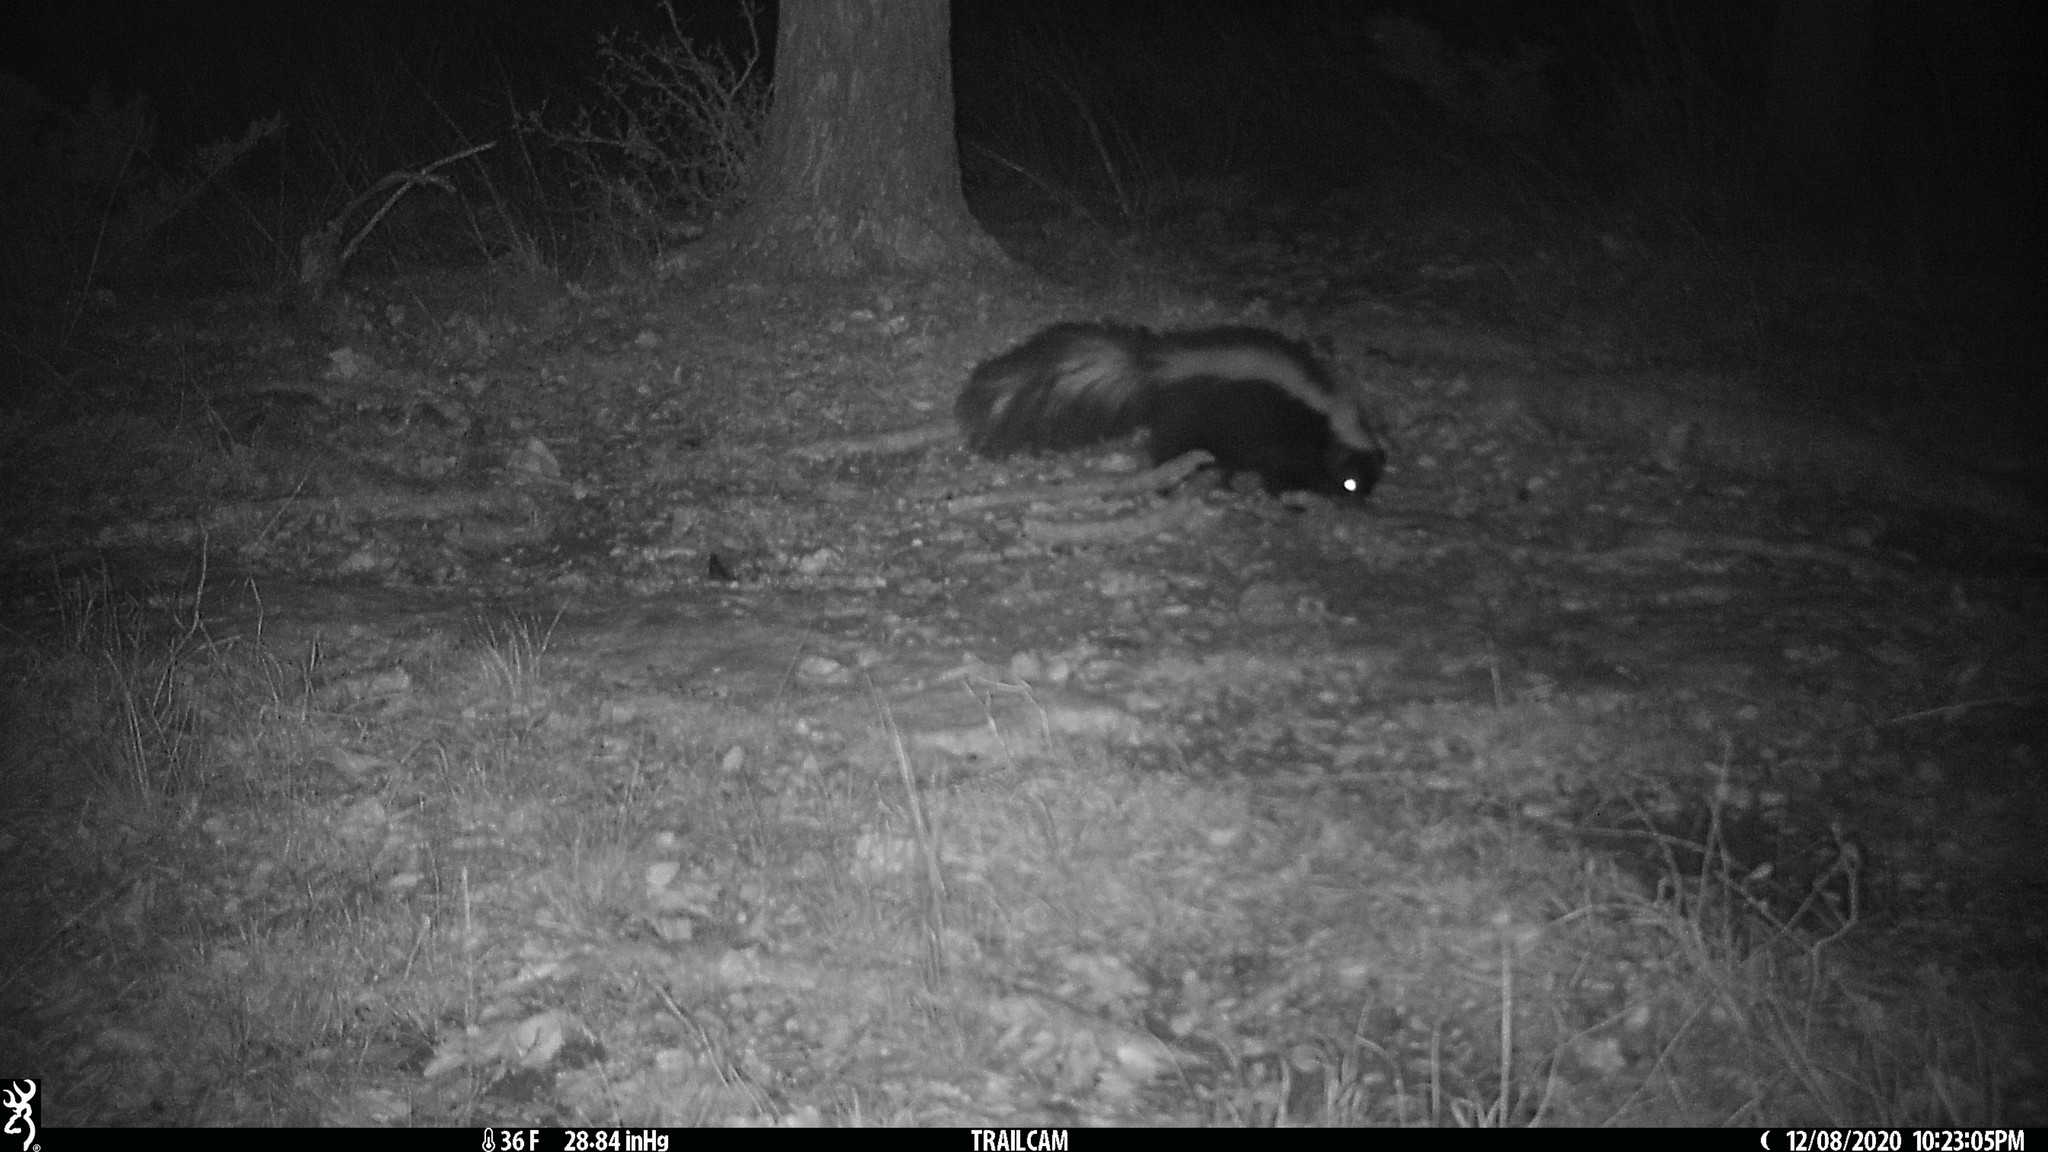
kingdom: Animalia
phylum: Chordata
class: Mammalia
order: Carnivora
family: Mephitidae
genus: Mephitis
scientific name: Mephitis mephitis
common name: Striped skunk
